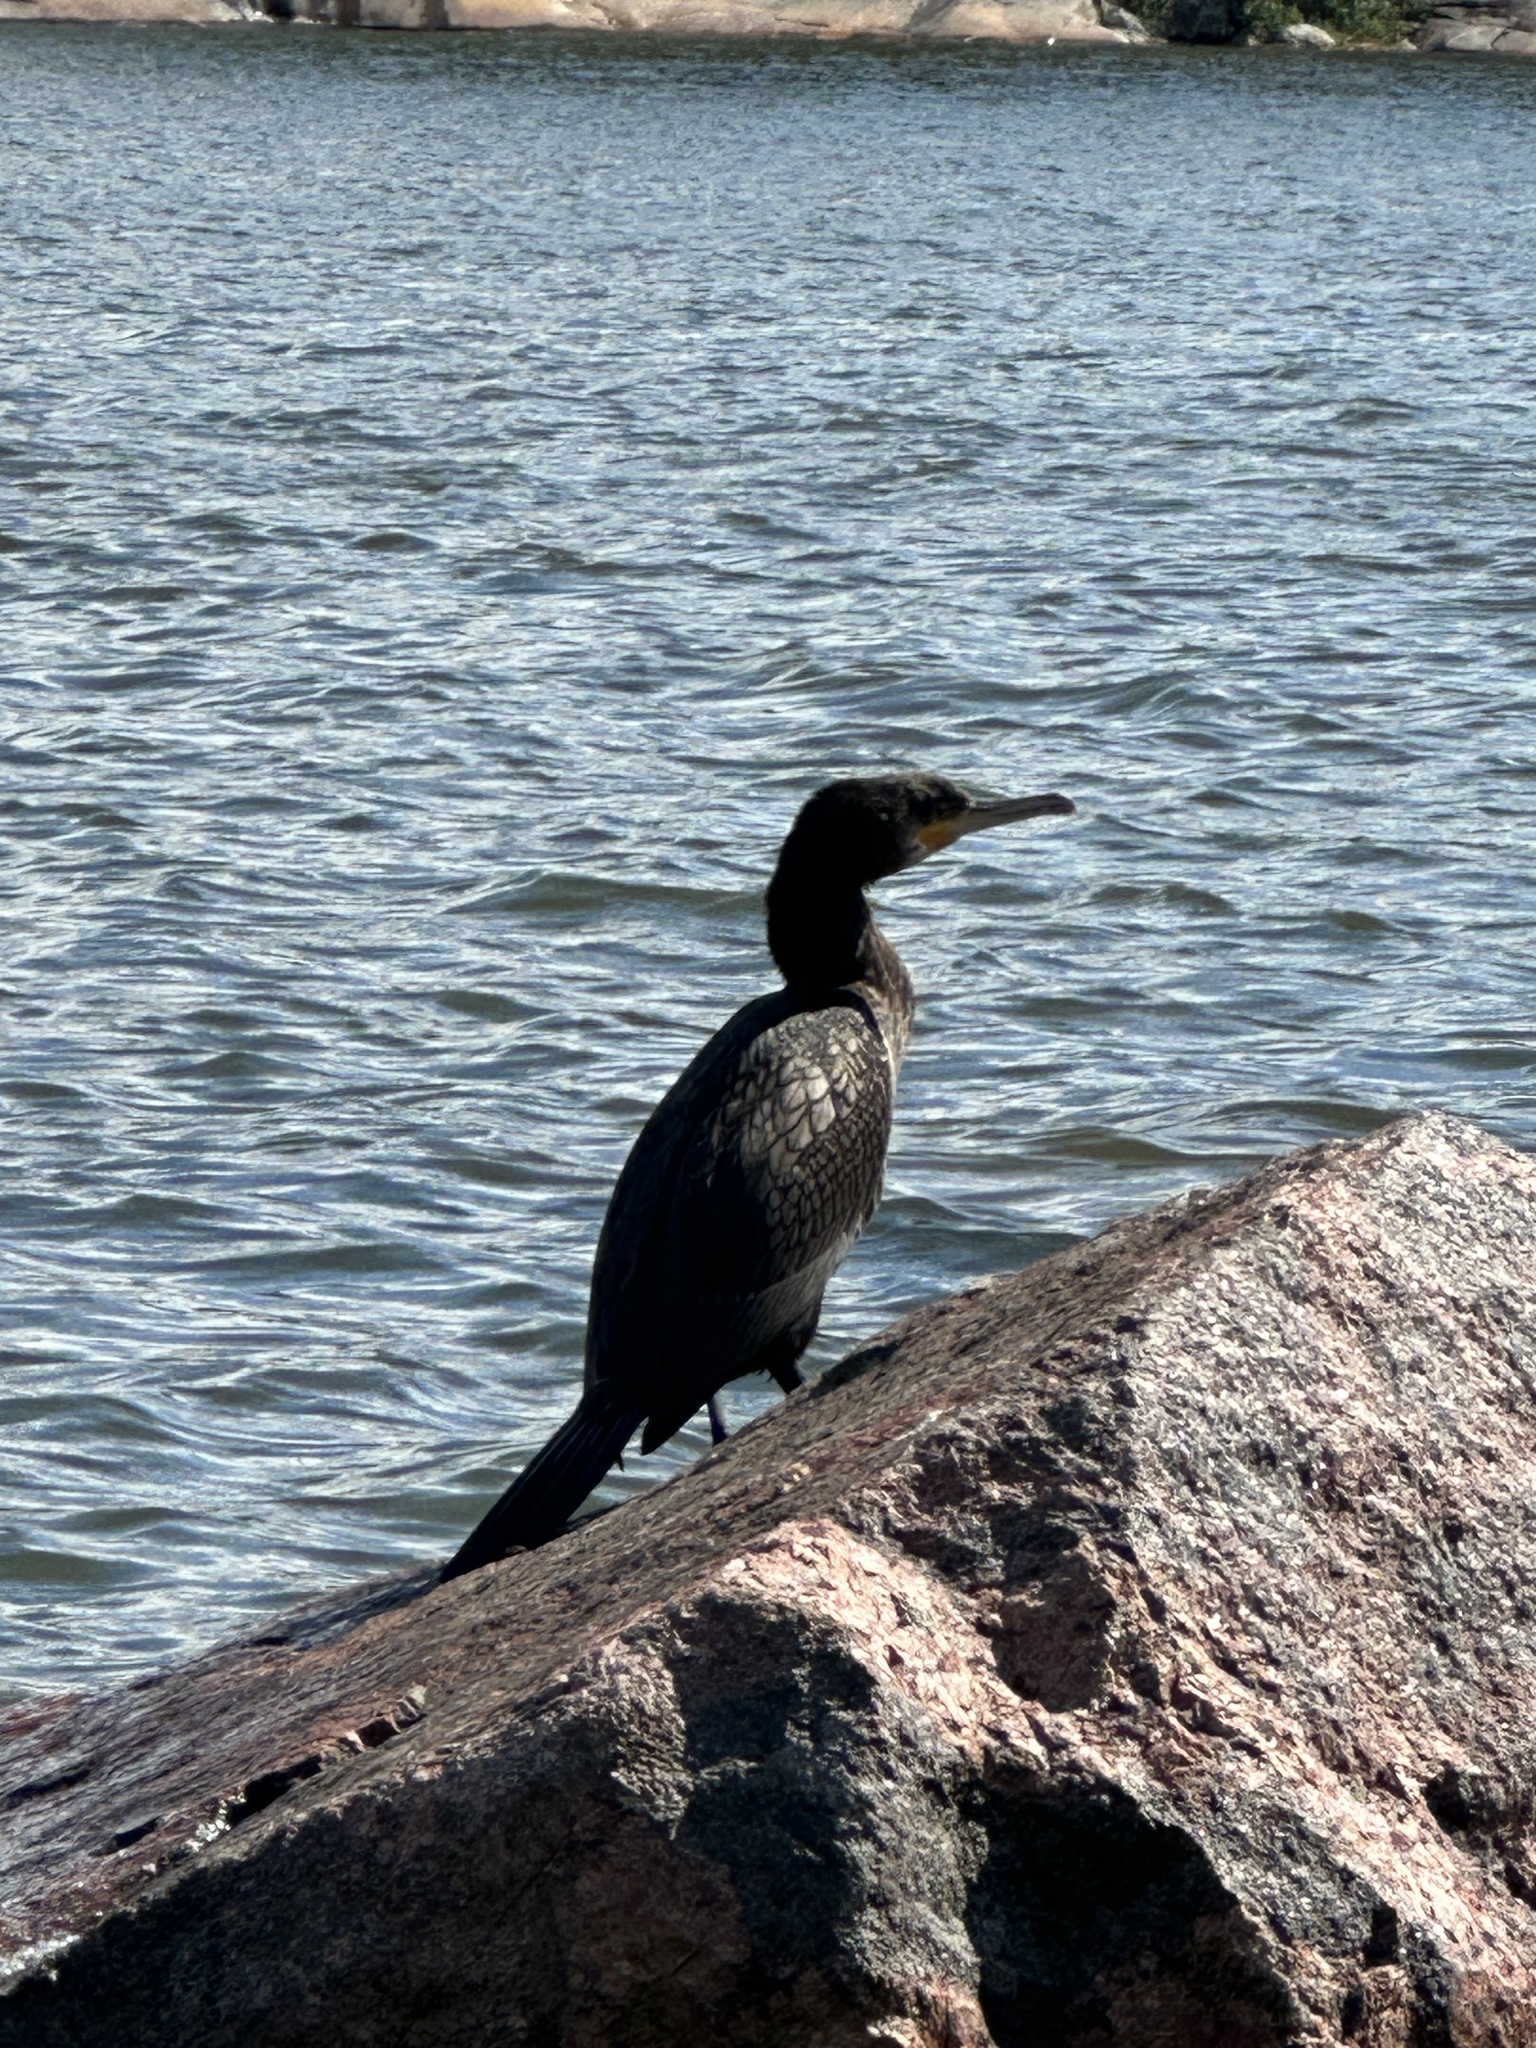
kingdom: Animalia
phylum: Chordata
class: Aves
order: Suliformes
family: Phalacrocoracidae
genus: Phalacrocorax
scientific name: Phalacrocorax carbo
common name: Great cormorant
